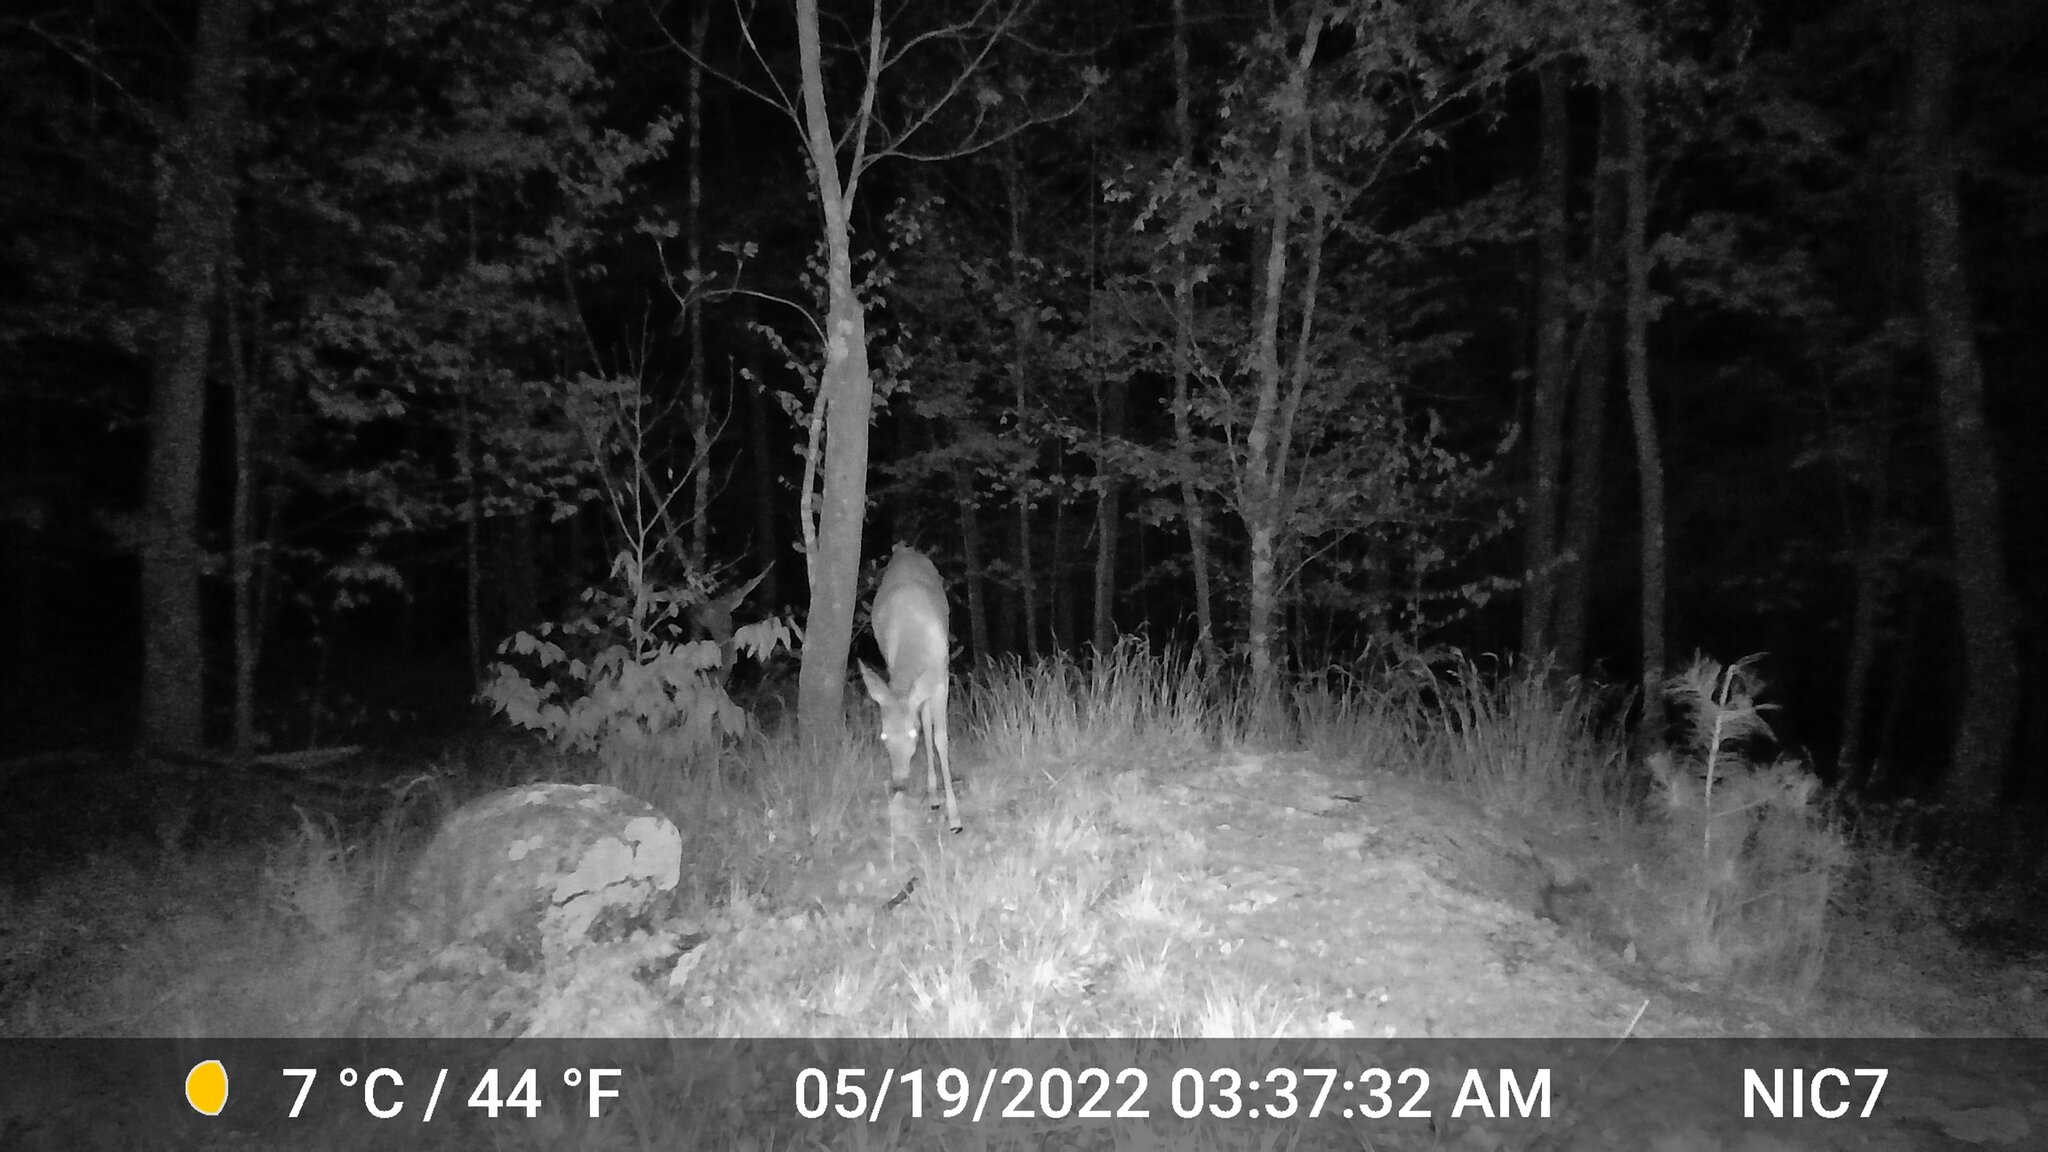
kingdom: Animalia
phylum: Chordata
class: Mammalia
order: Artiodactyla
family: Cervidae
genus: Odocoileus
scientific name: Odocoileus virginianus
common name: White-tailed deer
